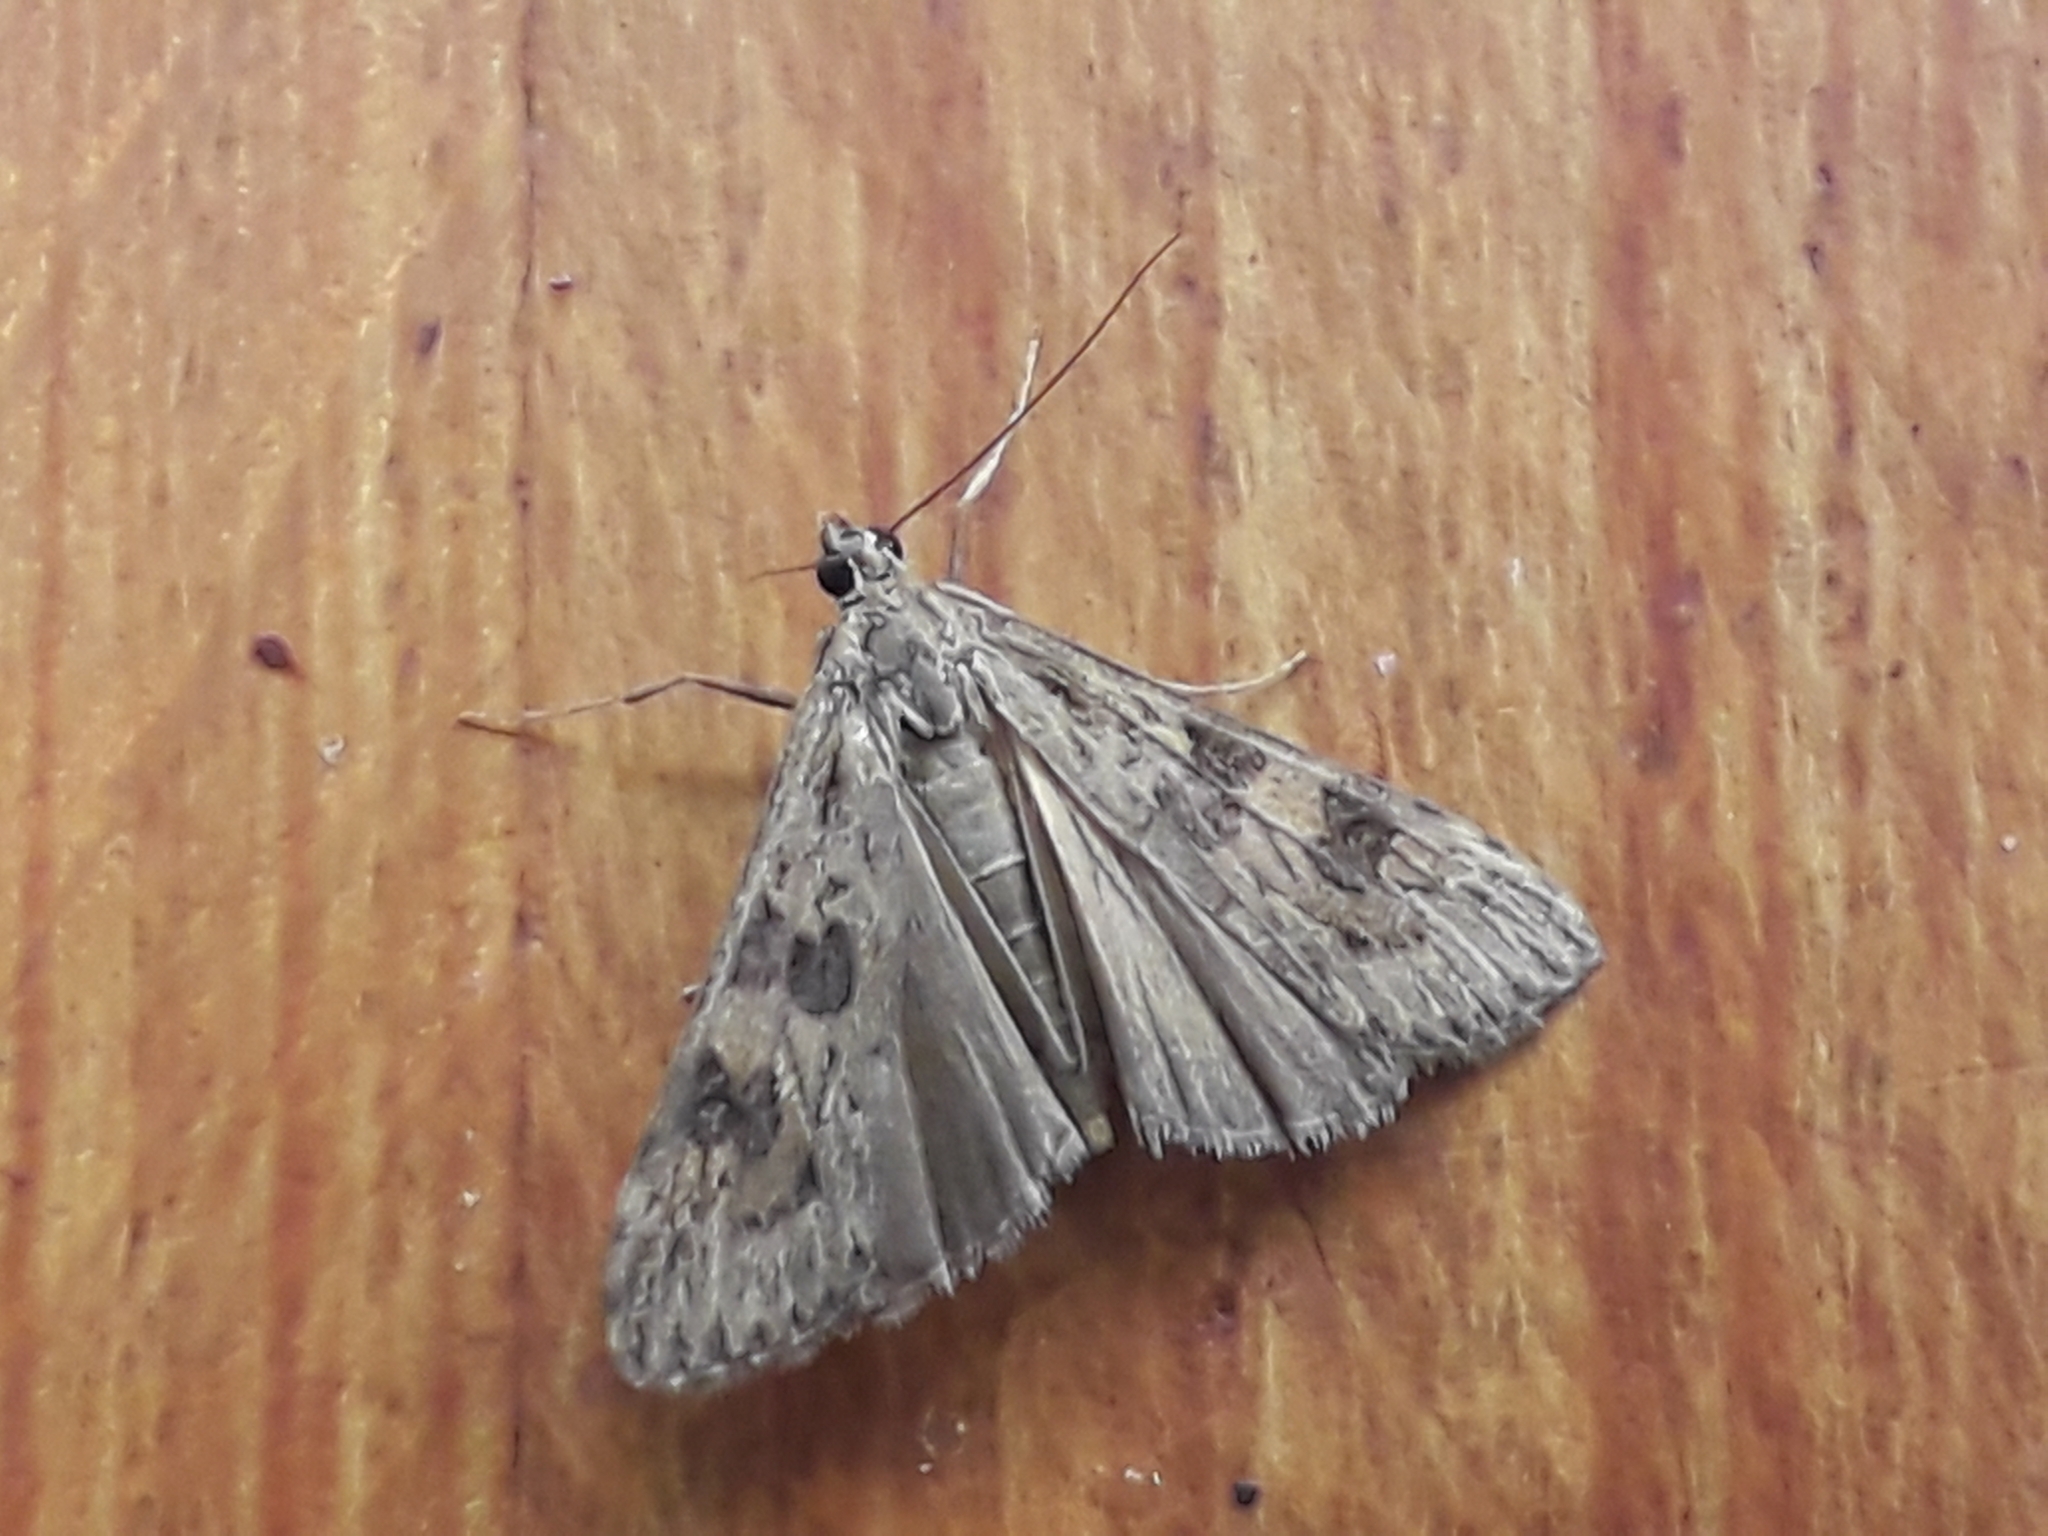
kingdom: Animalia
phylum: Arthropoda
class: Insecta
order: Lepidoptera
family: Crambidae
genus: Nomophila
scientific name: Nomophila noctuella
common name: Rush veneer
